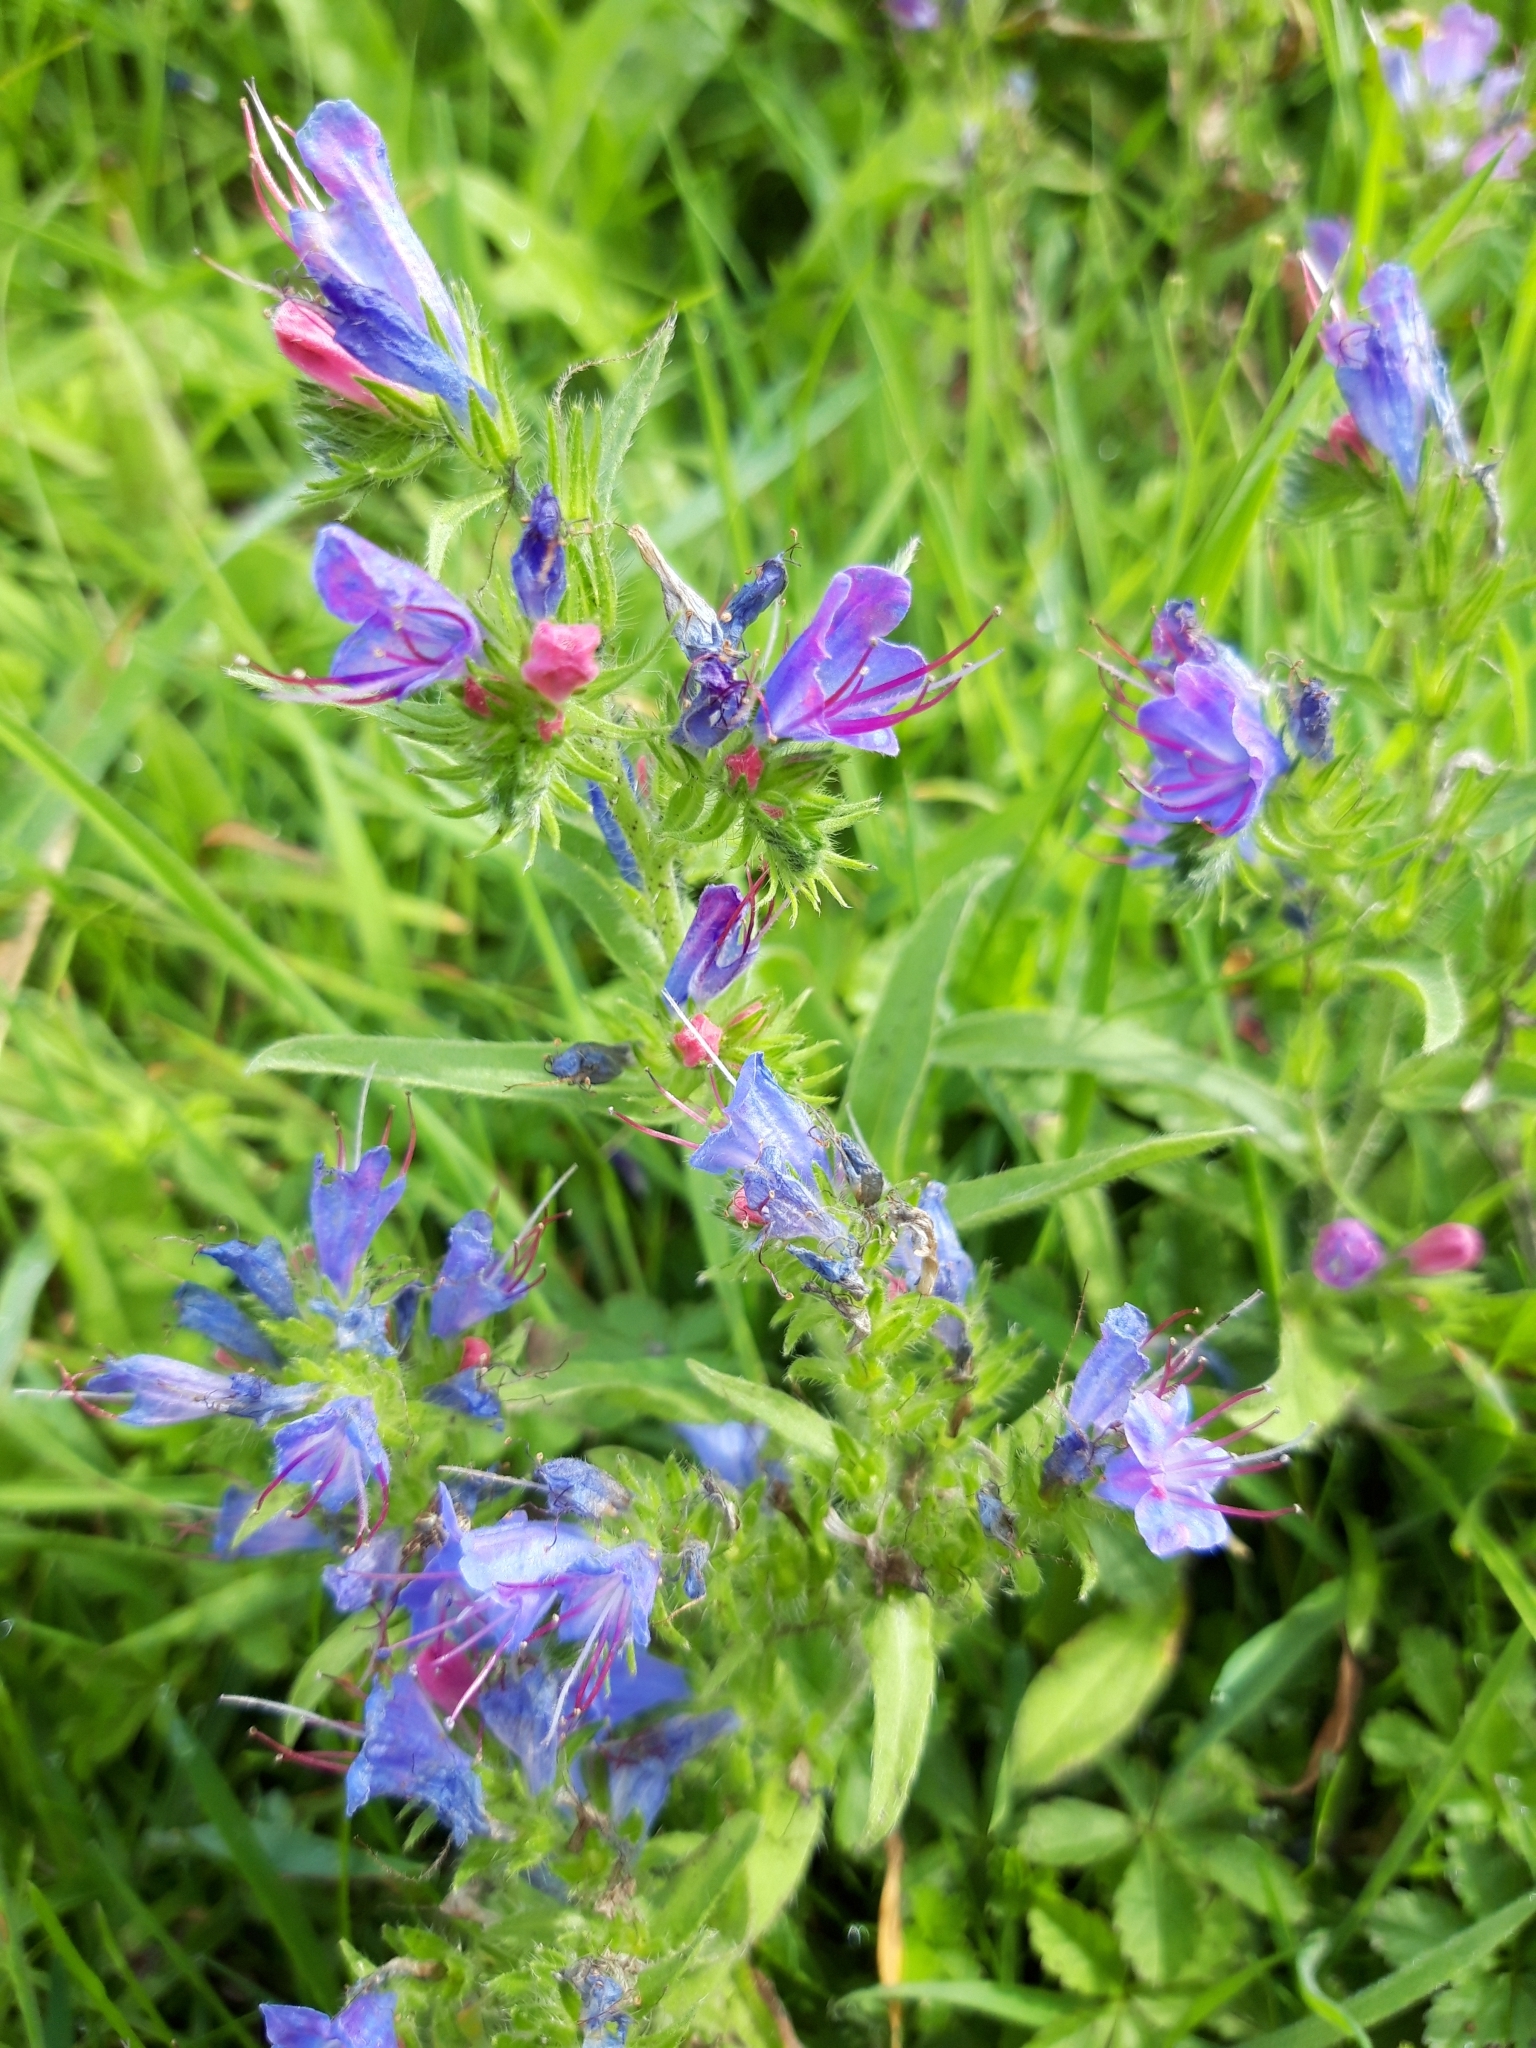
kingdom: Plantae
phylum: Tracheophyta
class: Magnoliopsida
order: Boraginales
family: Boraginaceae
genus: Echium
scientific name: Echium vulgare
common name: Common viper's bugloss
